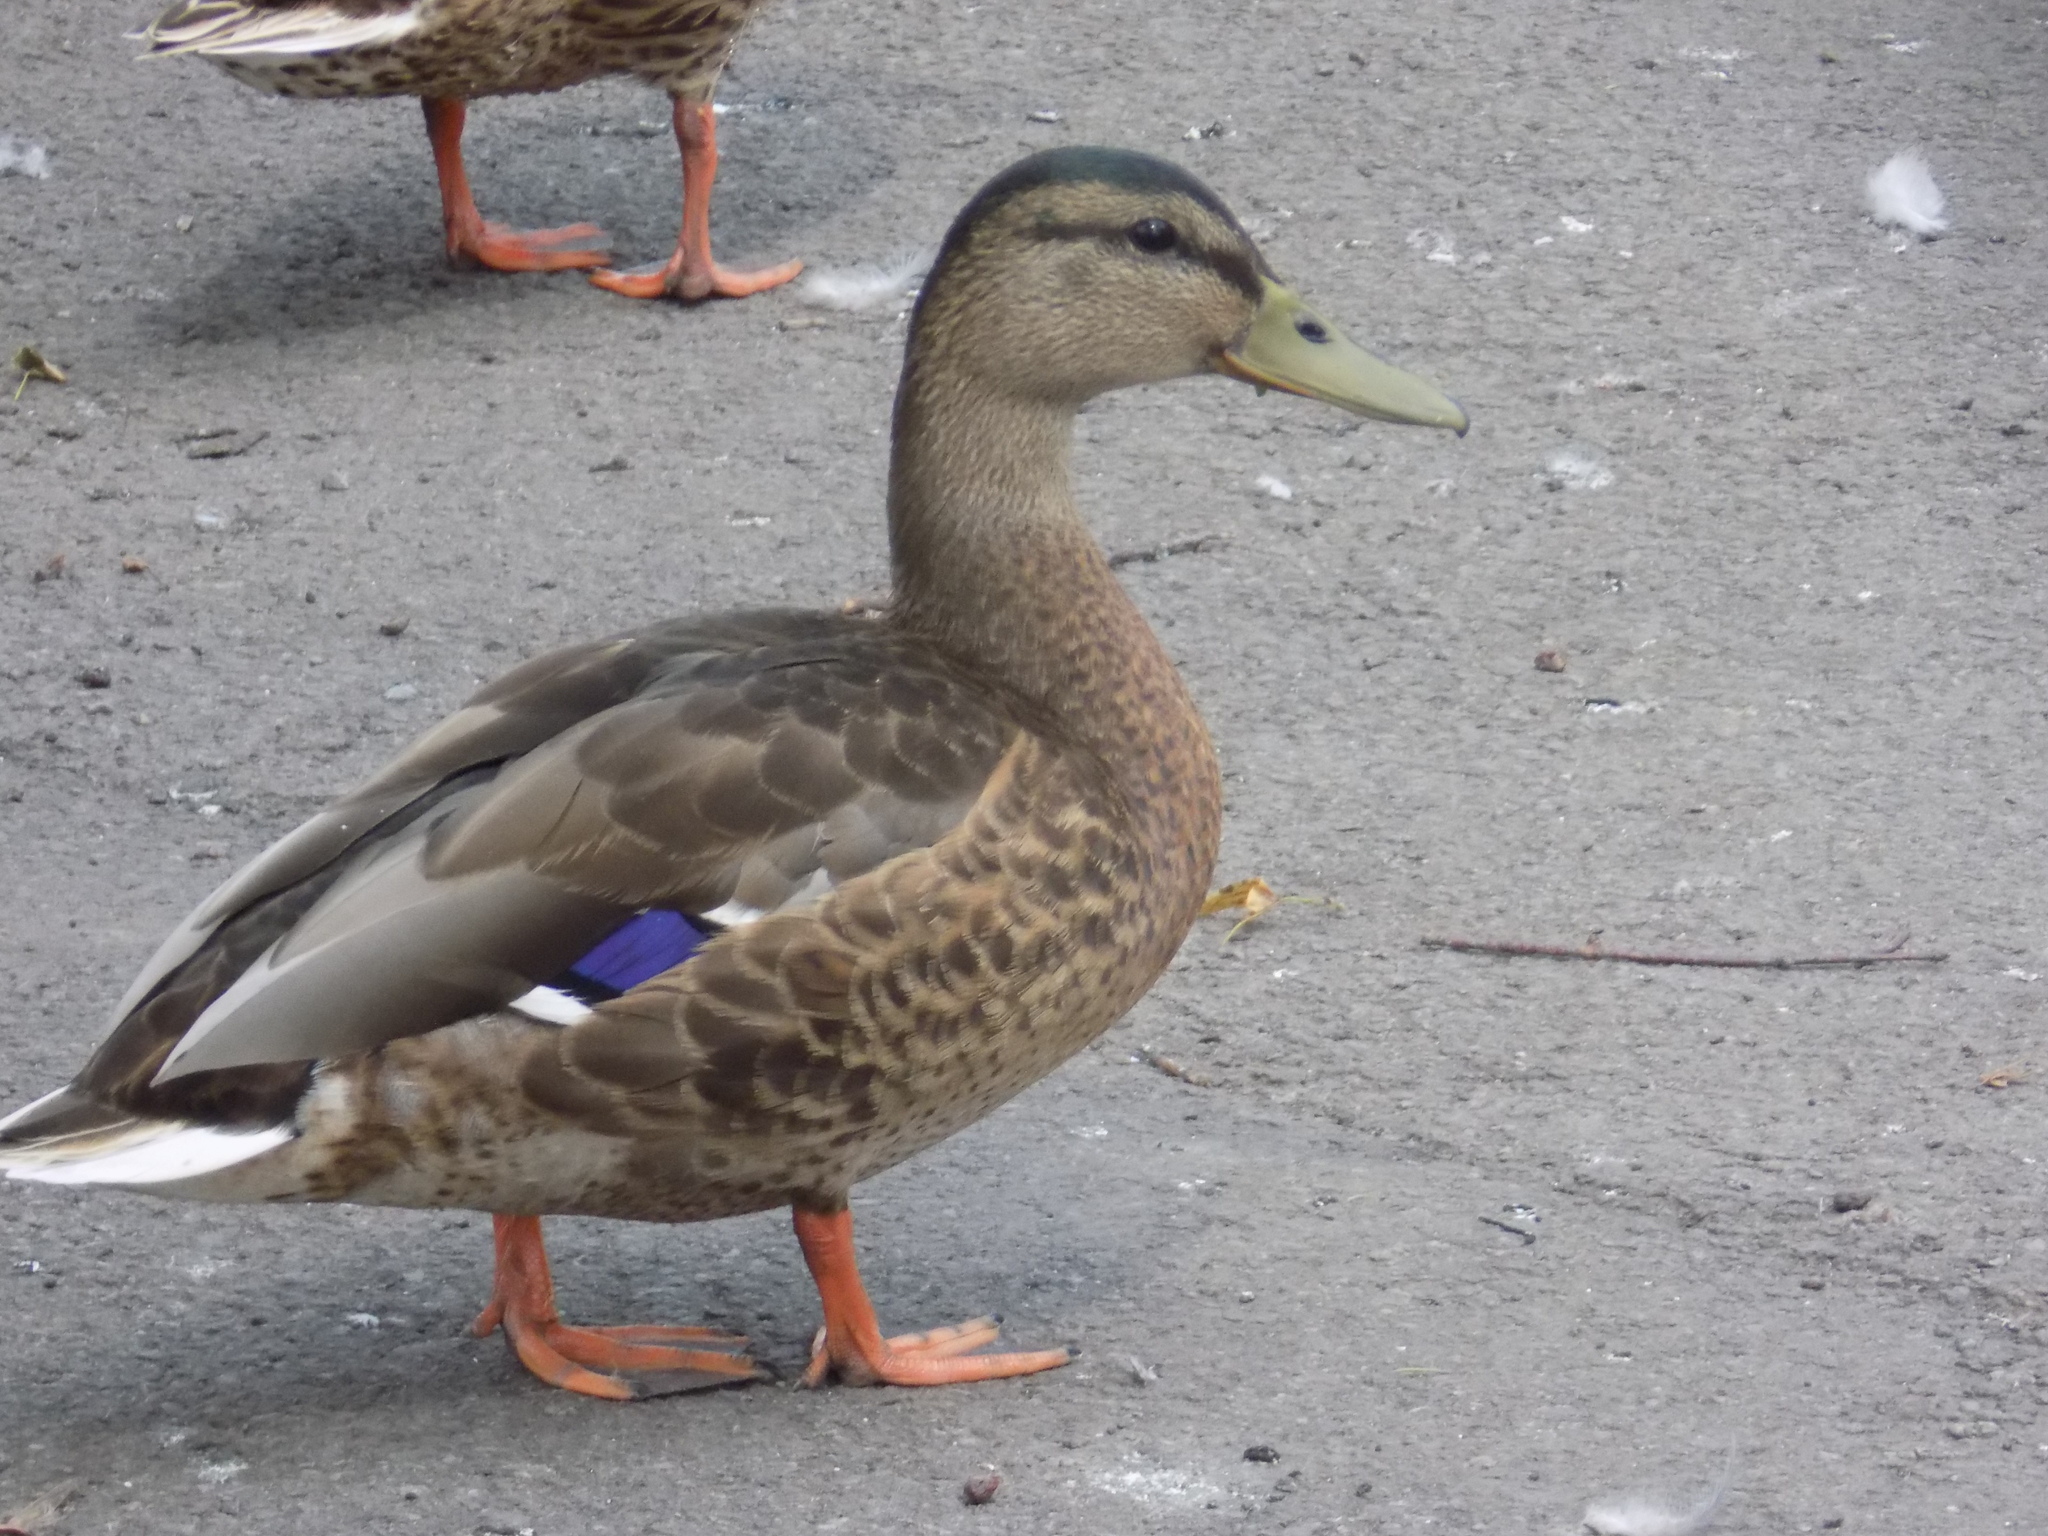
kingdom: Animalia
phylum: Chordata
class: Aves
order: Anseriformes
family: Anatidae
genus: Anas
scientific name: Anas platyrhynchos
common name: Mallard
